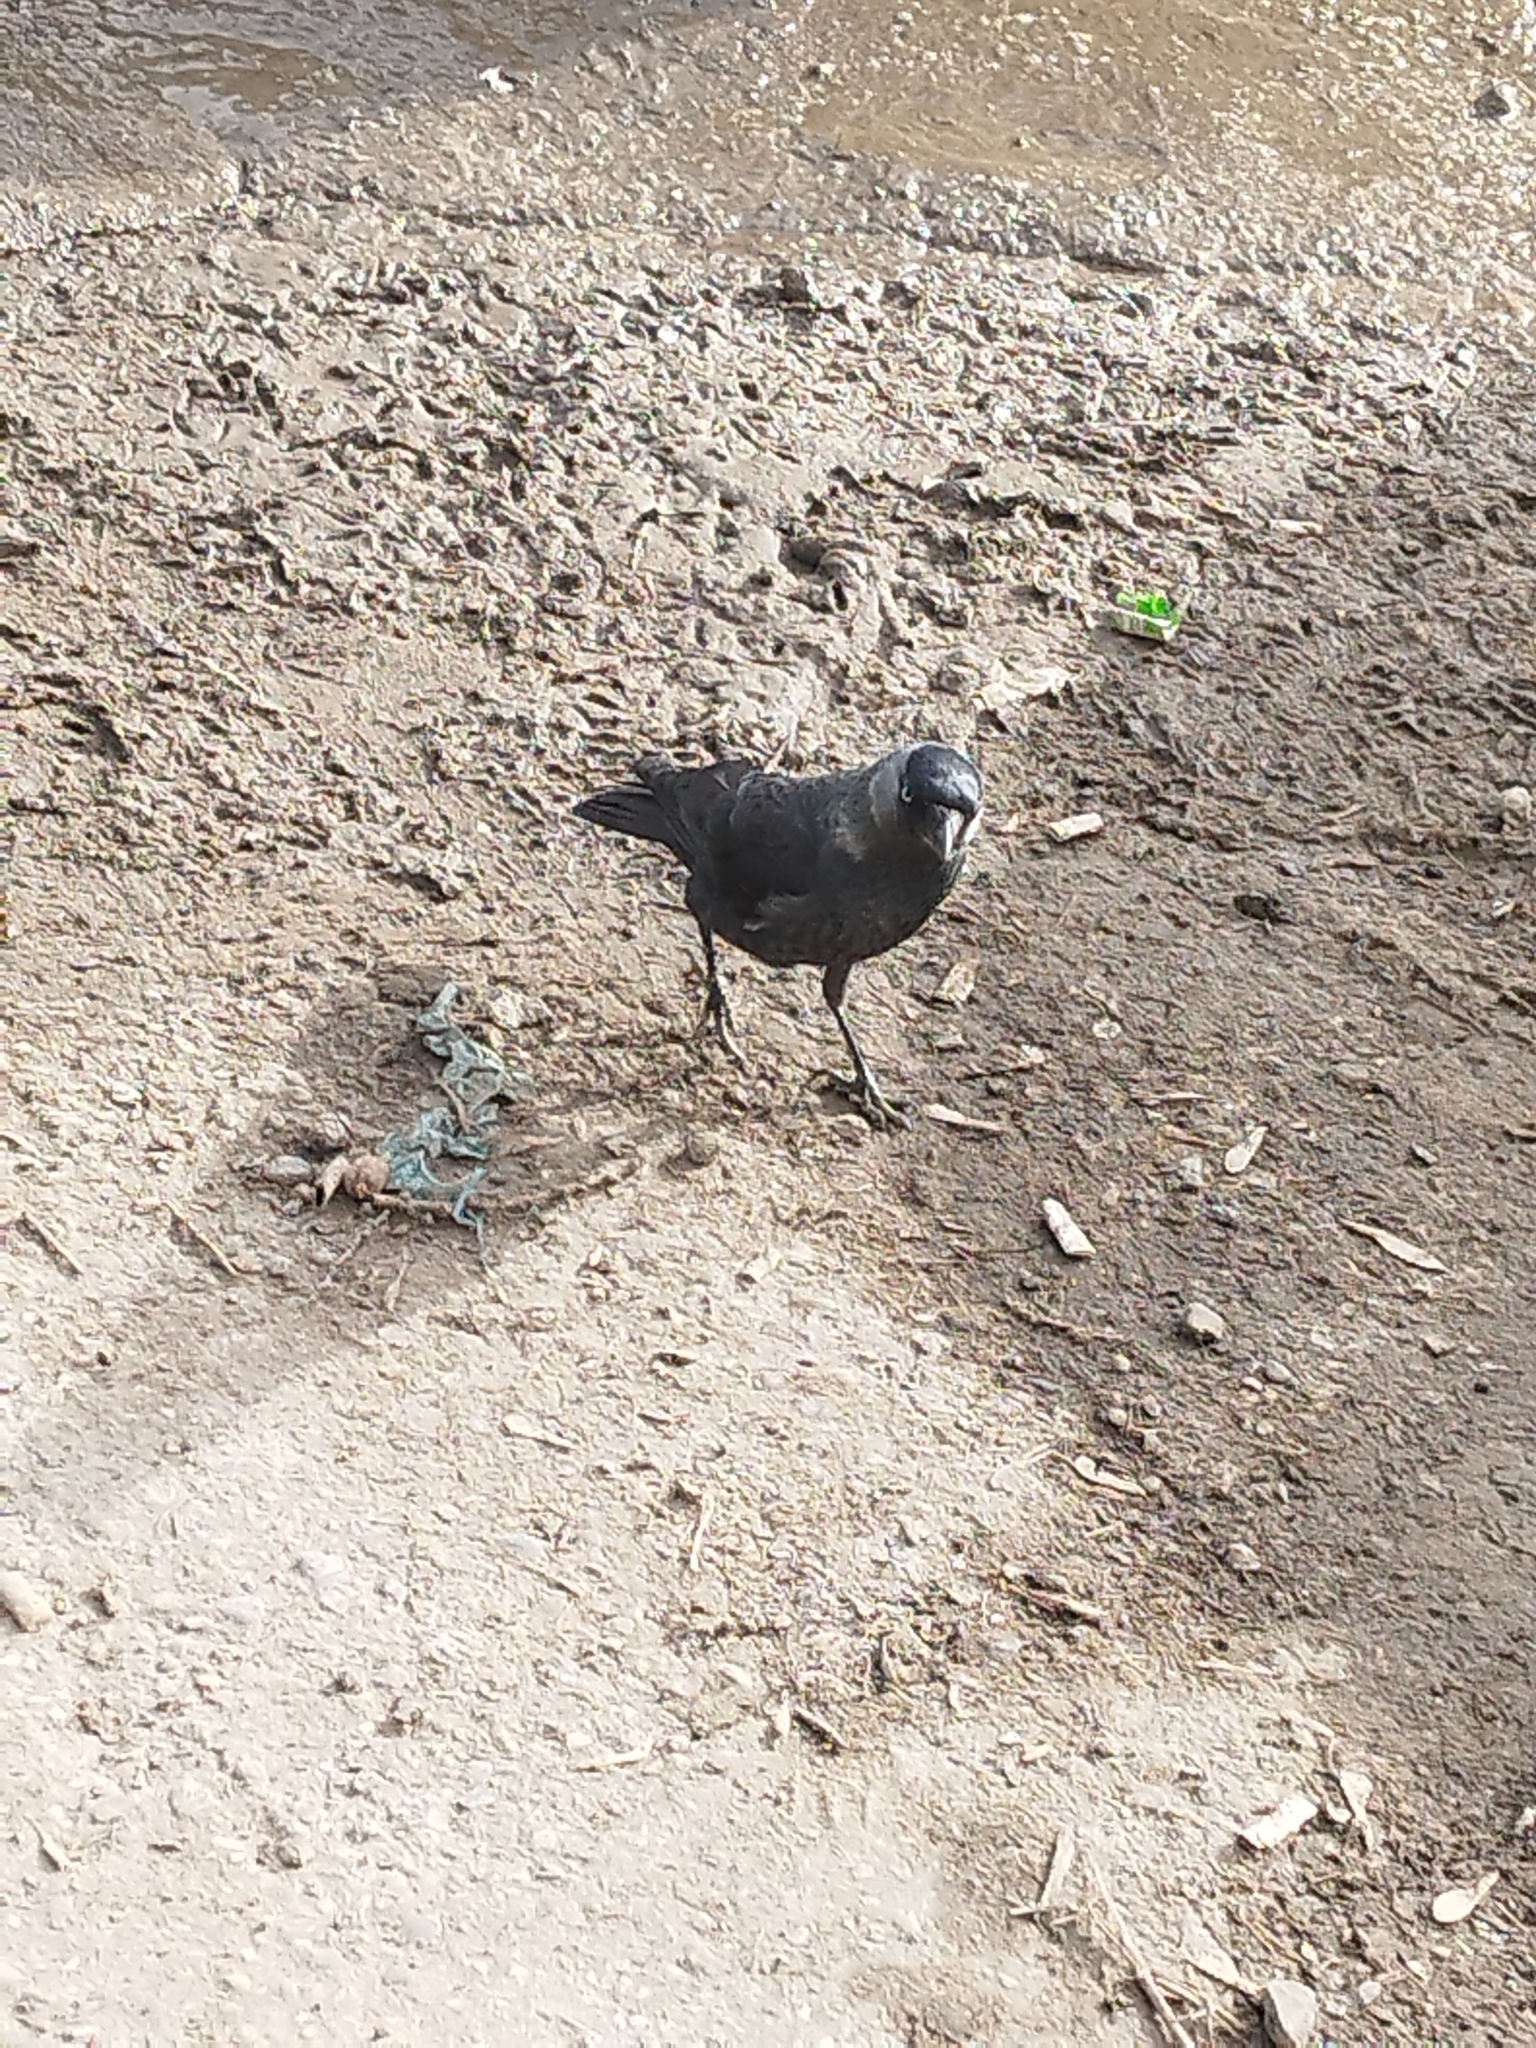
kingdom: Animalia
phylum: Chordata
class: Aves
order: Passeriformes
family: Corvidae
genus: Coloeus
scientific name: Coloeus monedula
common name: Western jackdaw
